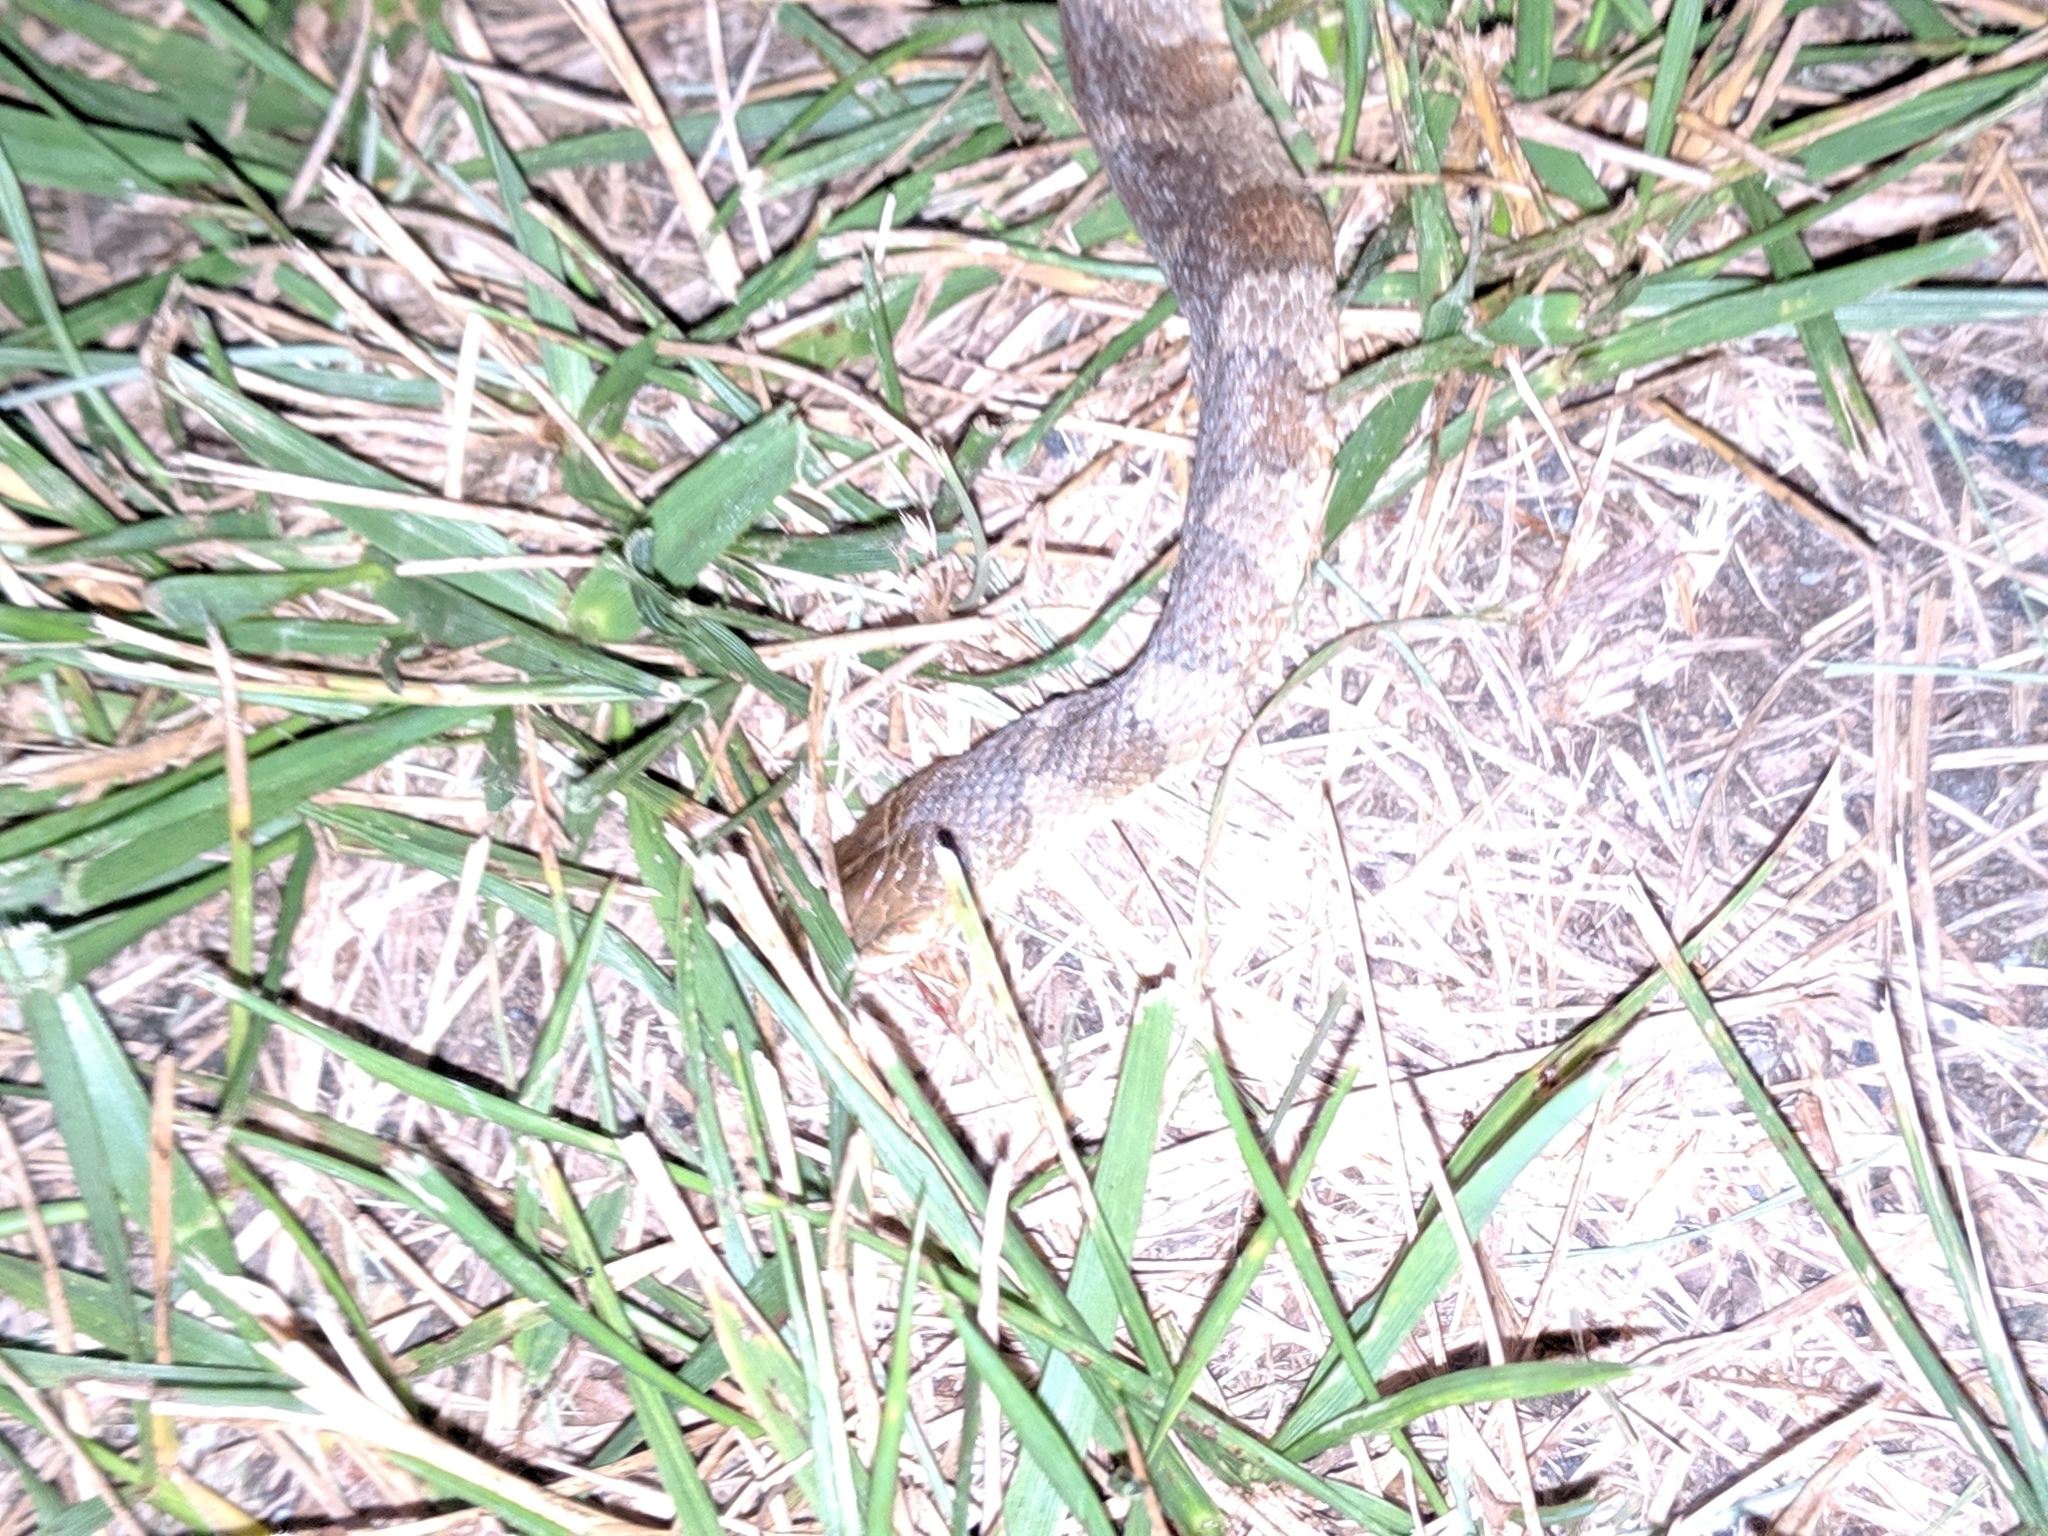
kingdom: Animalia
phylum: Chordata
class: Squamata
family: Colubridae
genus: Nerodia
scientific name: Nerodia sipedon
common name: Northern water snake
